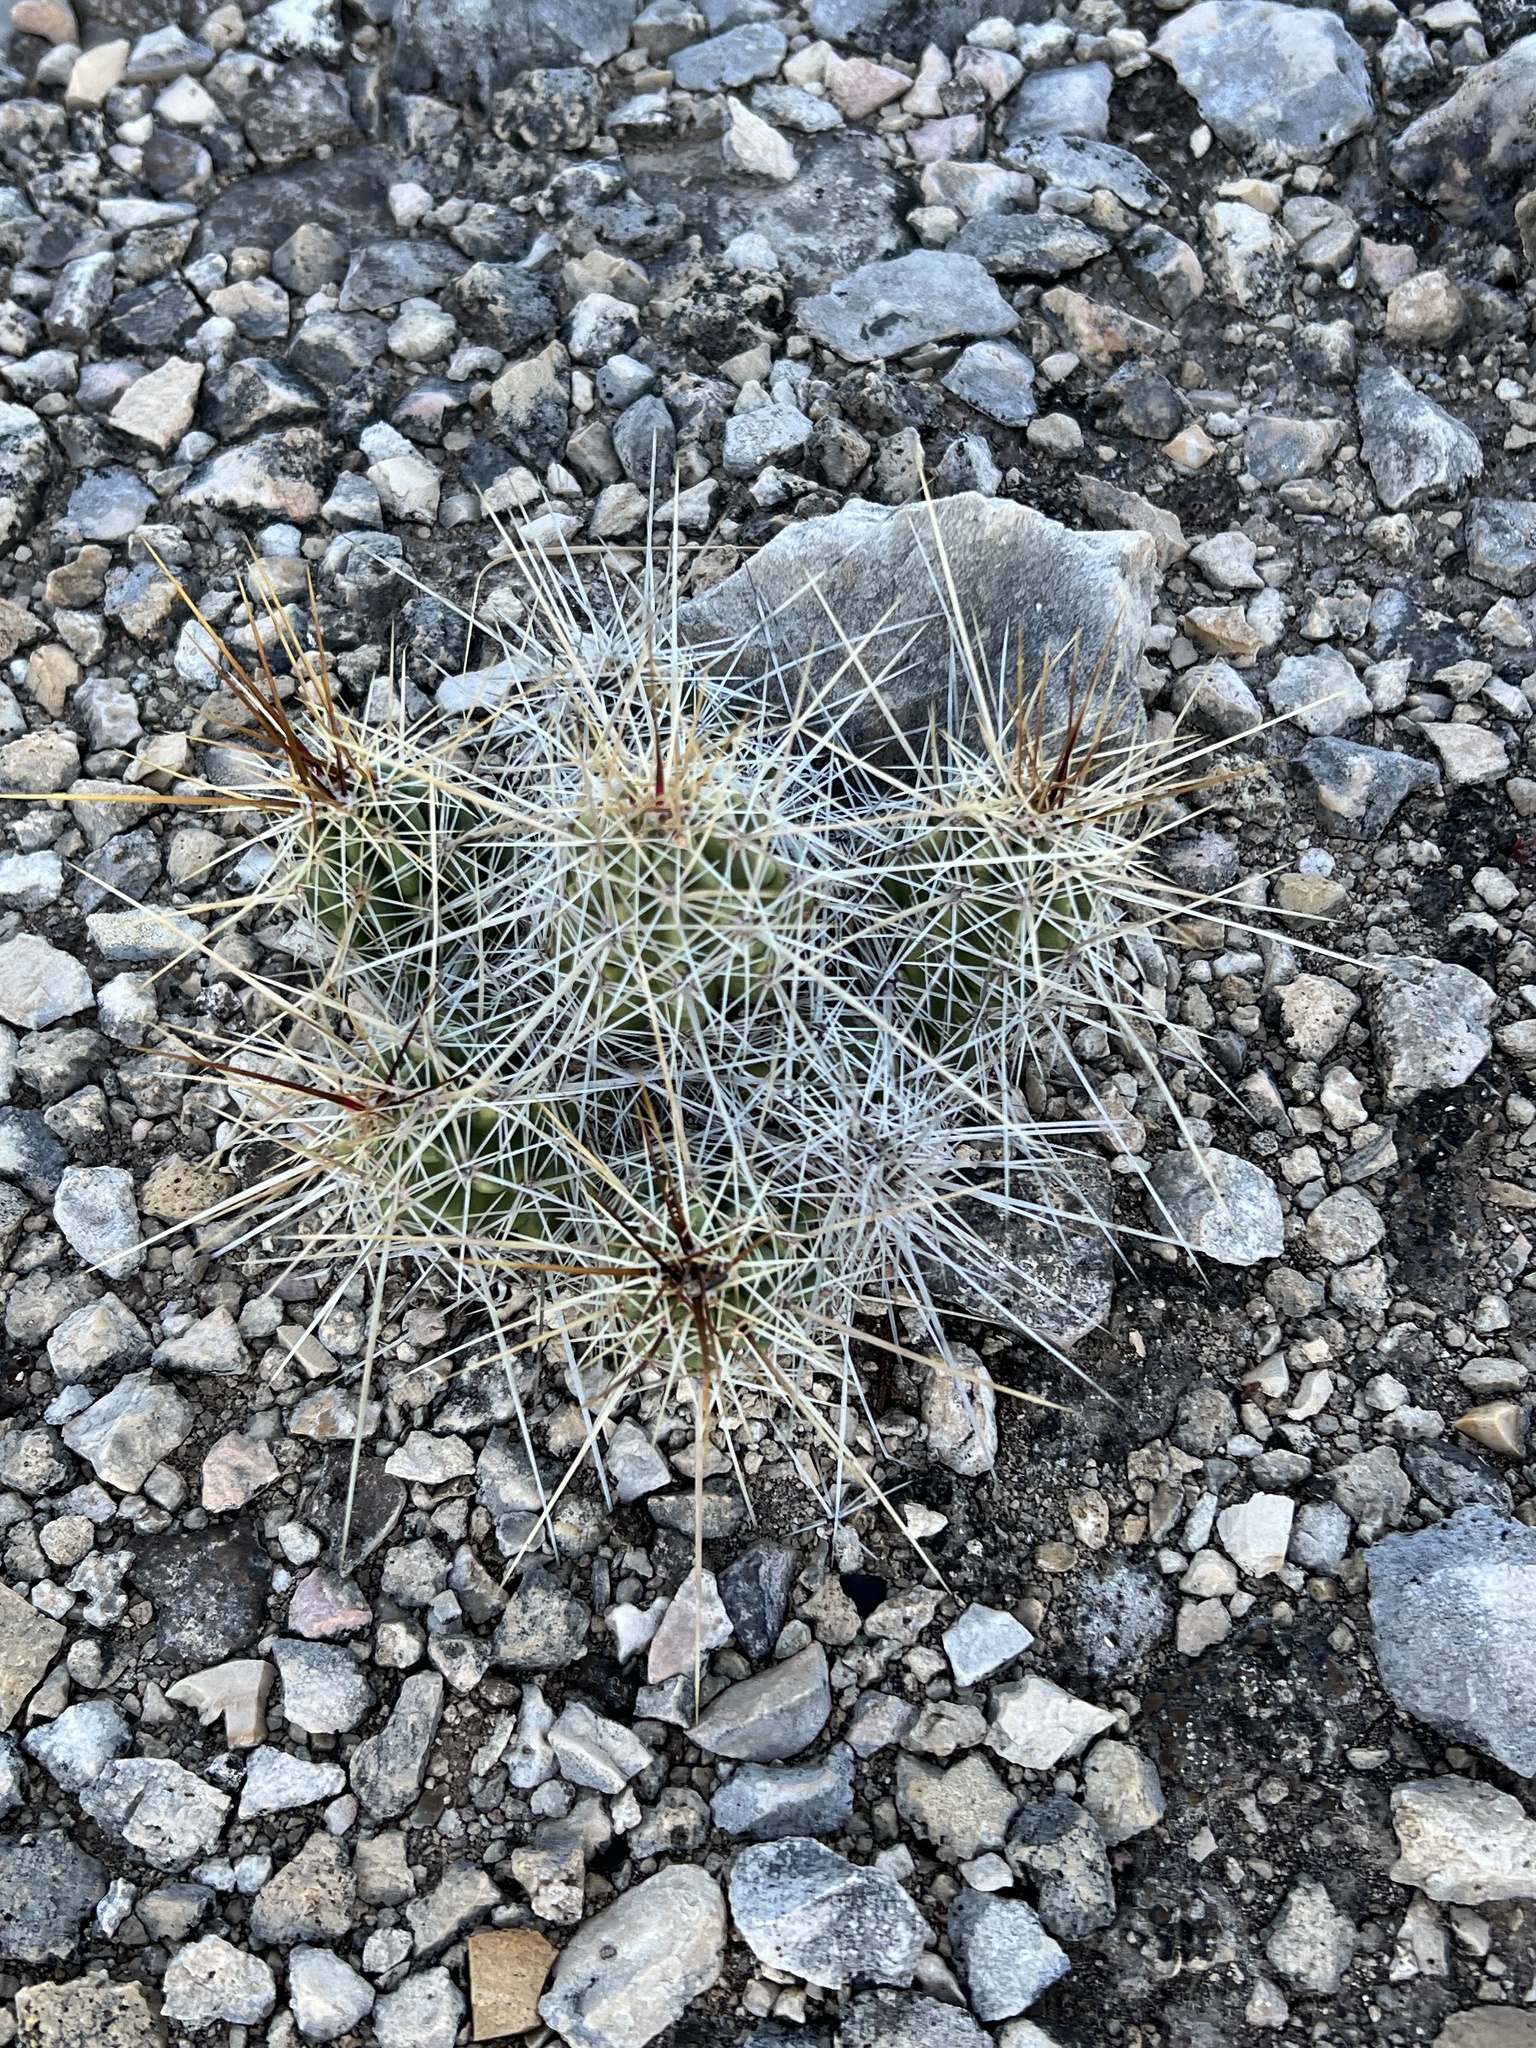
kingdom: Plantae
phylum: Tracheophyta
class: Magnoliopsida
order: Caryophyllales
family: Cactaceae
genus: Echinocereus
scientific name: Echinocereus enneacanthus
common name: Pitaya
